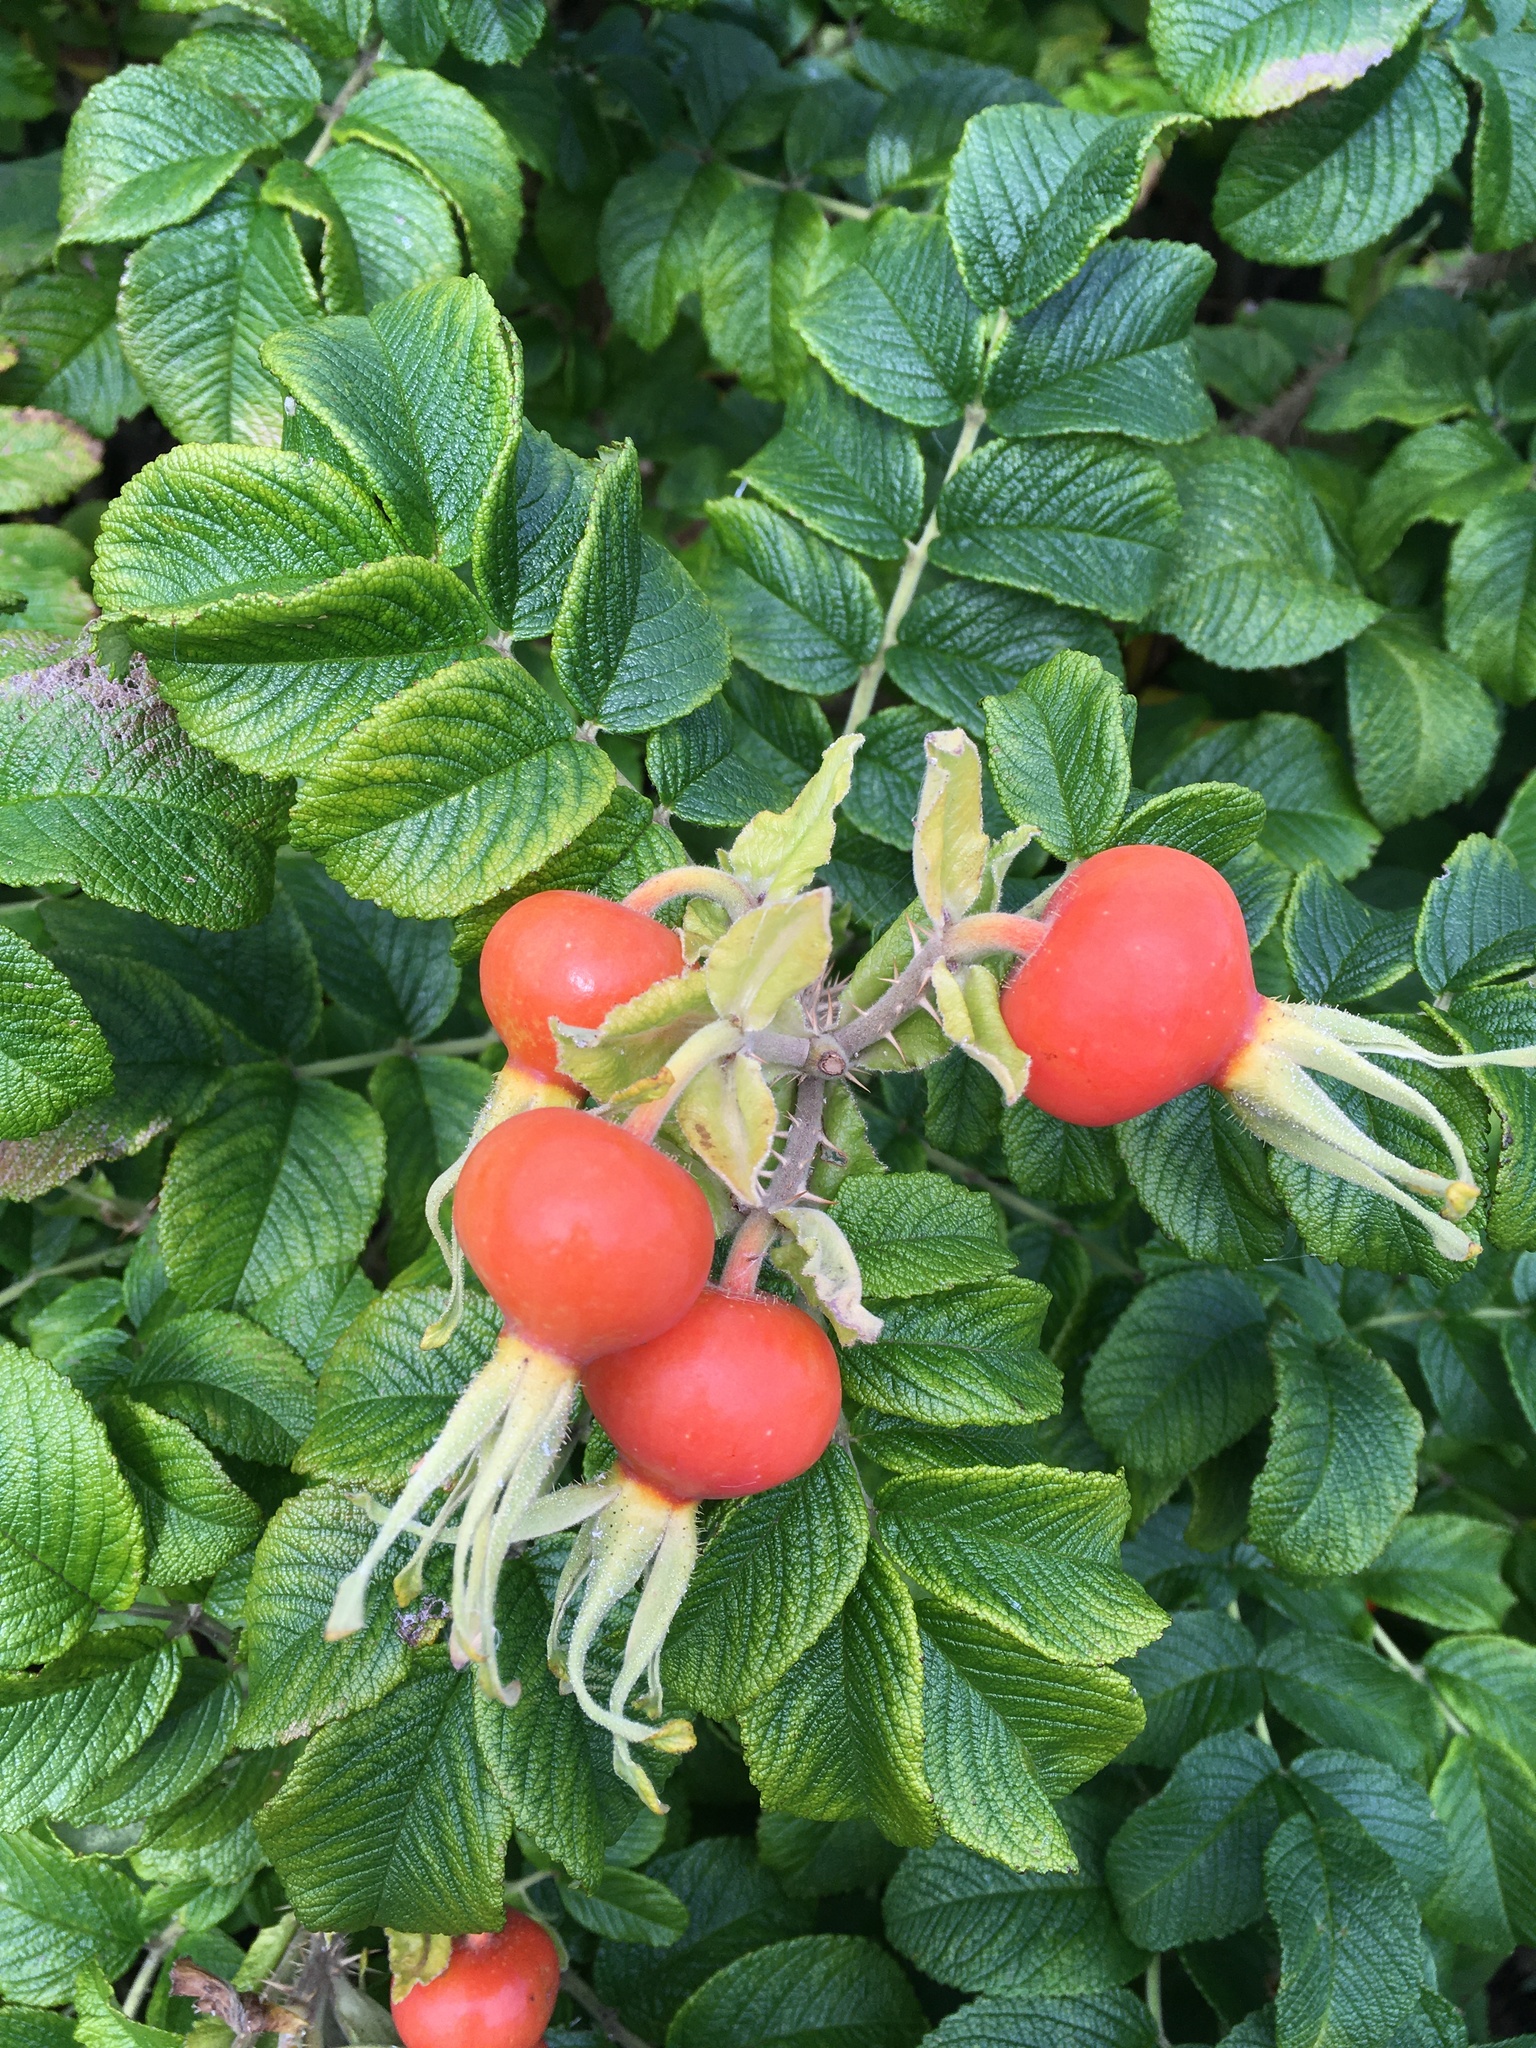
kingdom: Plantae
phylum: Tracheophyta
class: Magnoliopsida
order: Rosales
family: Rosaceae
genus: Rosa
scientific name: Rosa rugosa
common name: Japanese rose
